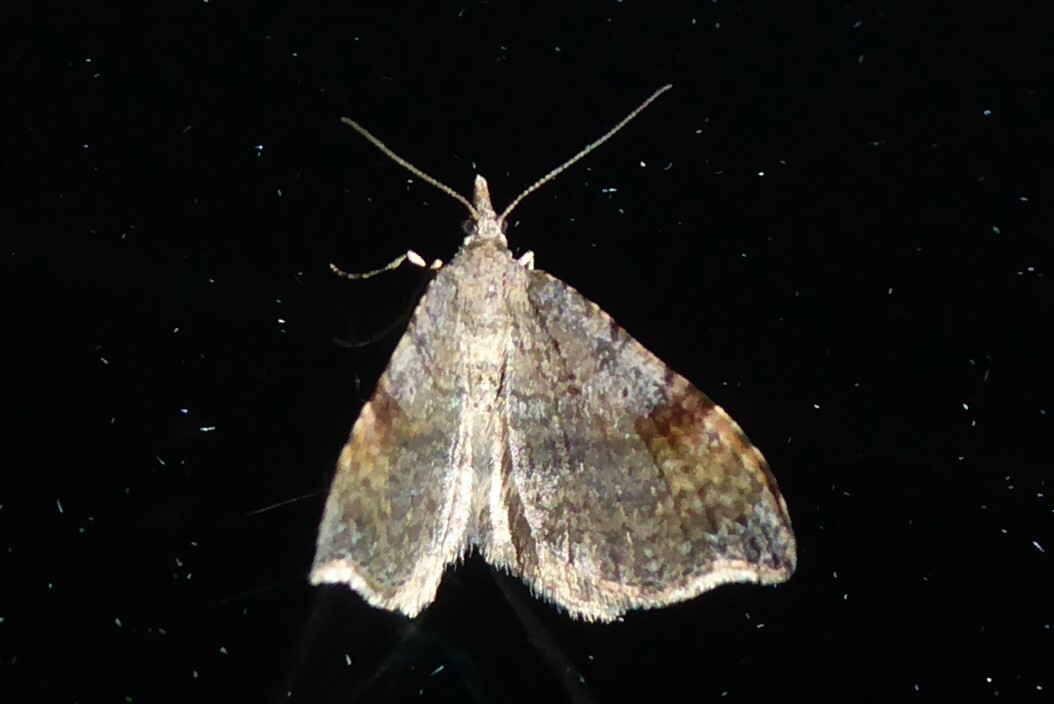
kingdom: Animalia
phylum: Arthropoda
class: Insecta
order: Lepidoptera
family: Geometridae
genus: Homodotis
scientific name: Homodotis megaspilata
